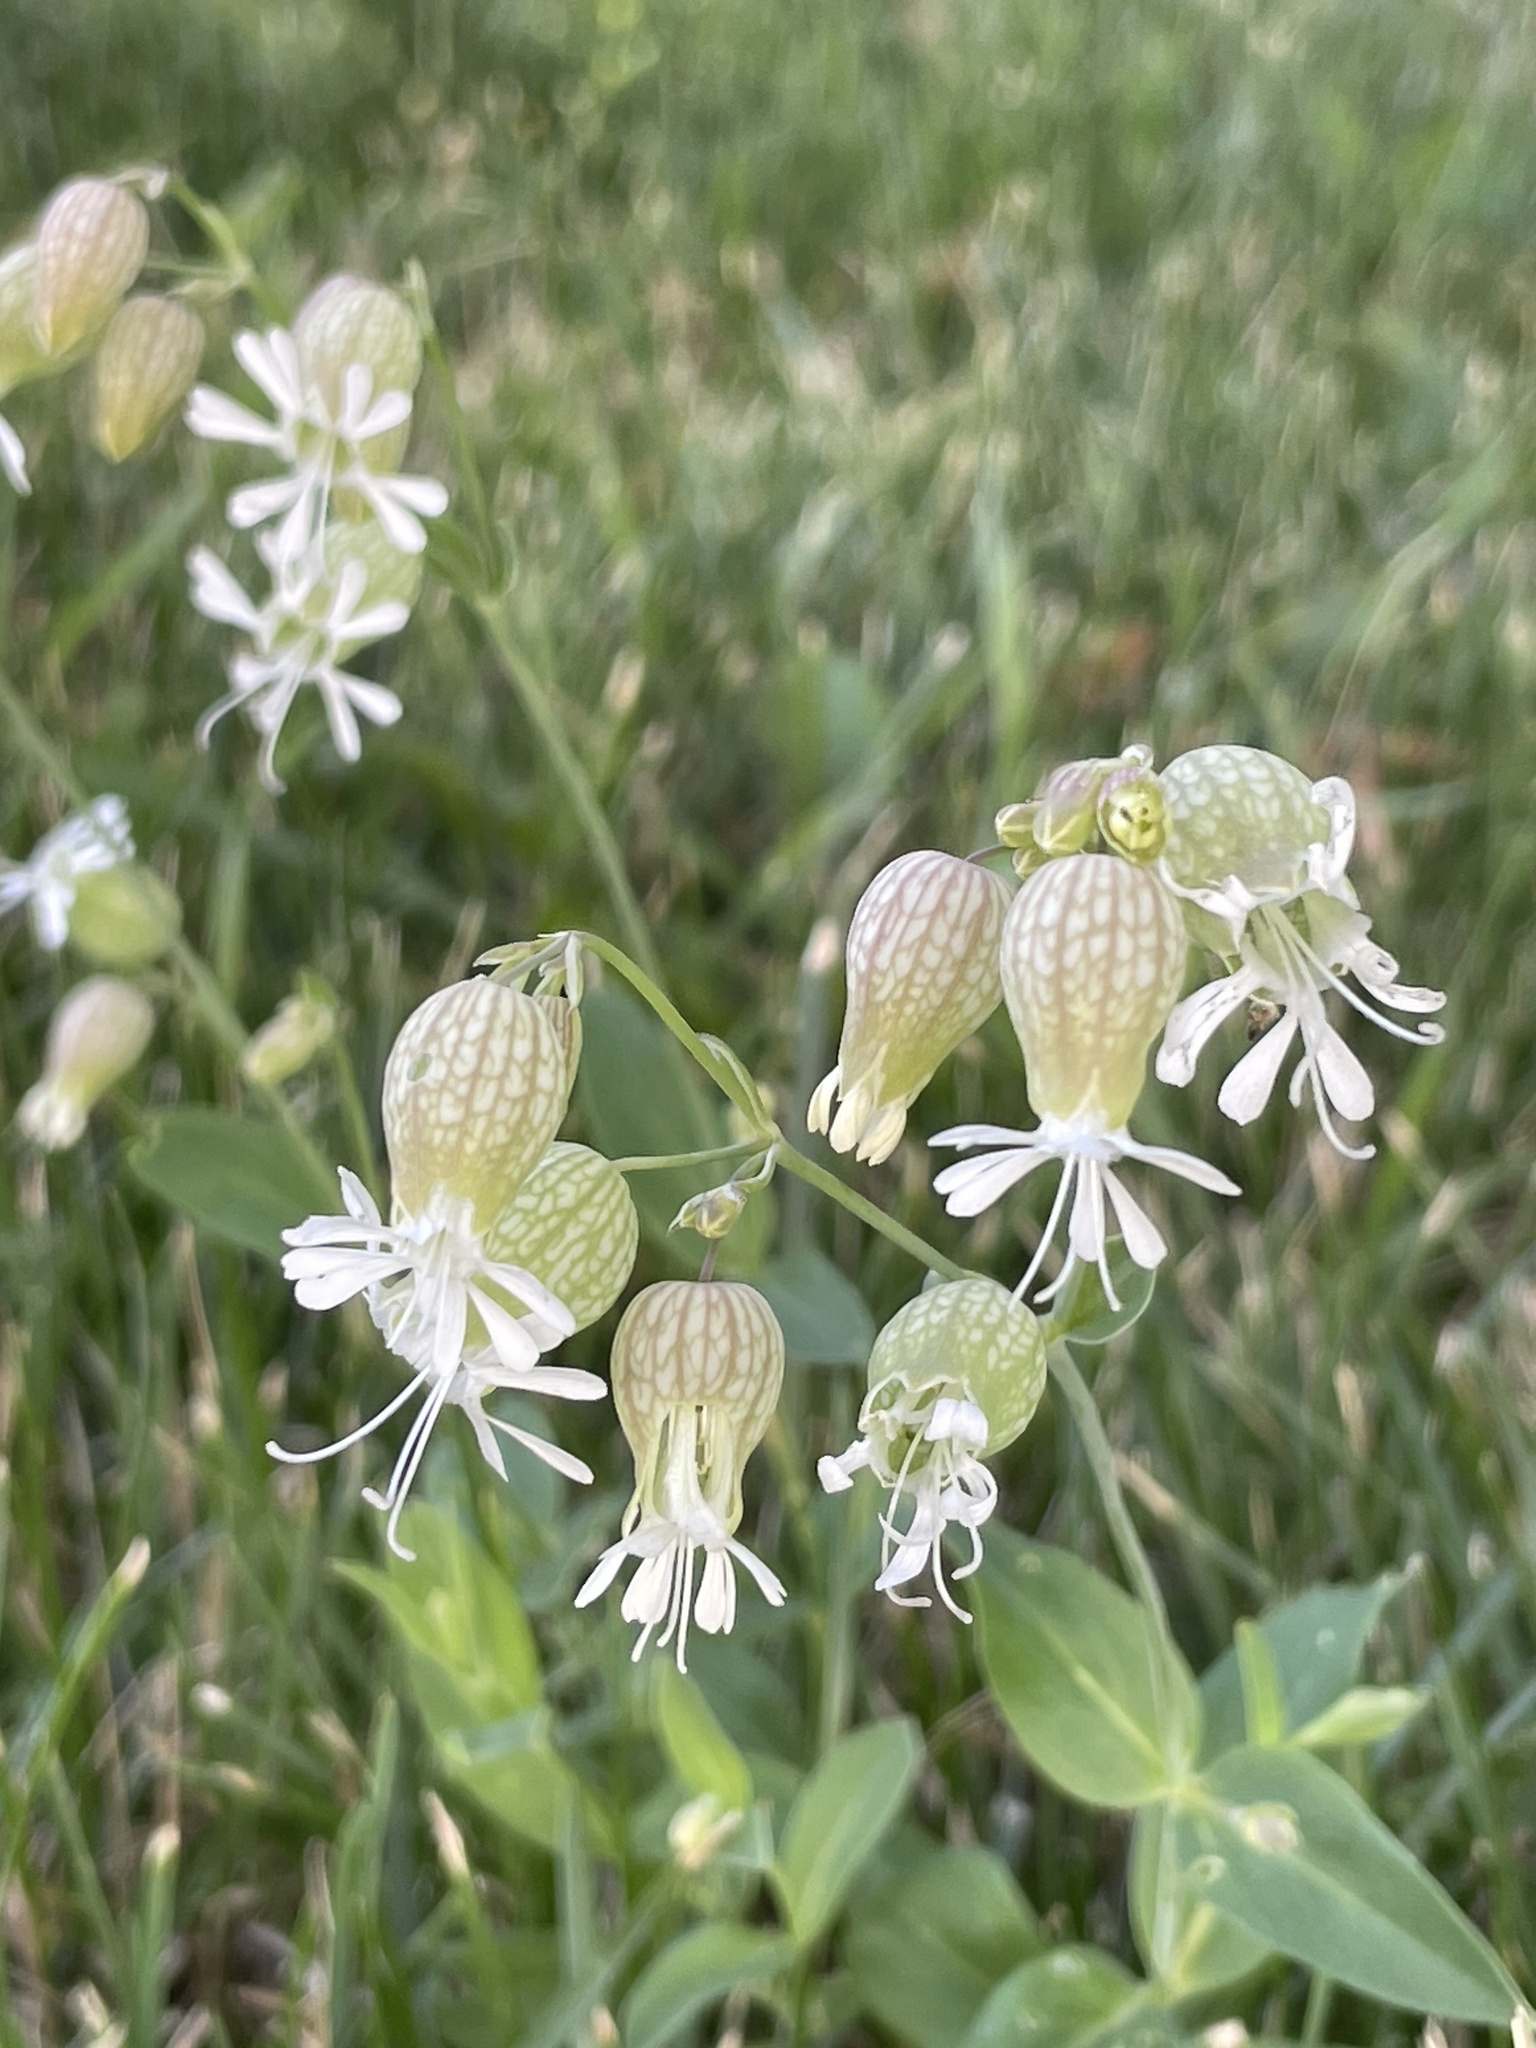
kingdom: Plantae
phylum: Tracheophyta
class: Magnoliopsida
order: Caryophyllales
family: Caryophyllaceae
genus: Silene
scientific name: Silene vulgaris
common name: Bladder campion
